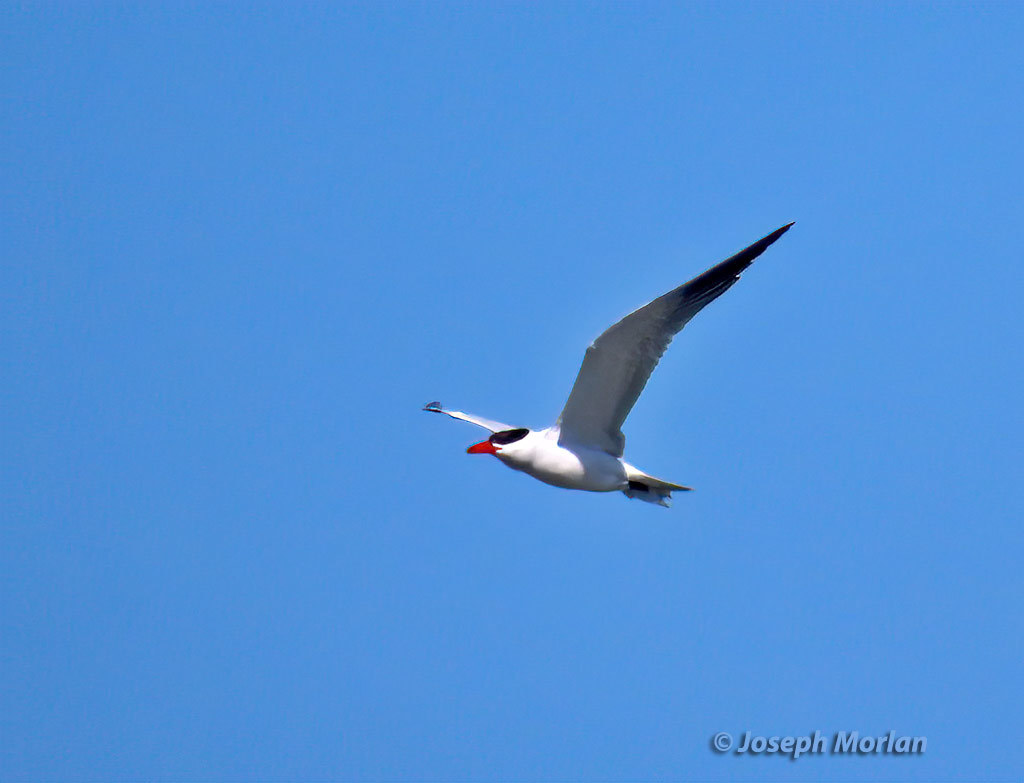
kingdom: Animalia
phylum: Chordata
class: Aves
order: Charadriiformes
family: Laridae
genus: Hydroprogne
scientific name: Hydroprogne caspia
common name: Caspian tern
